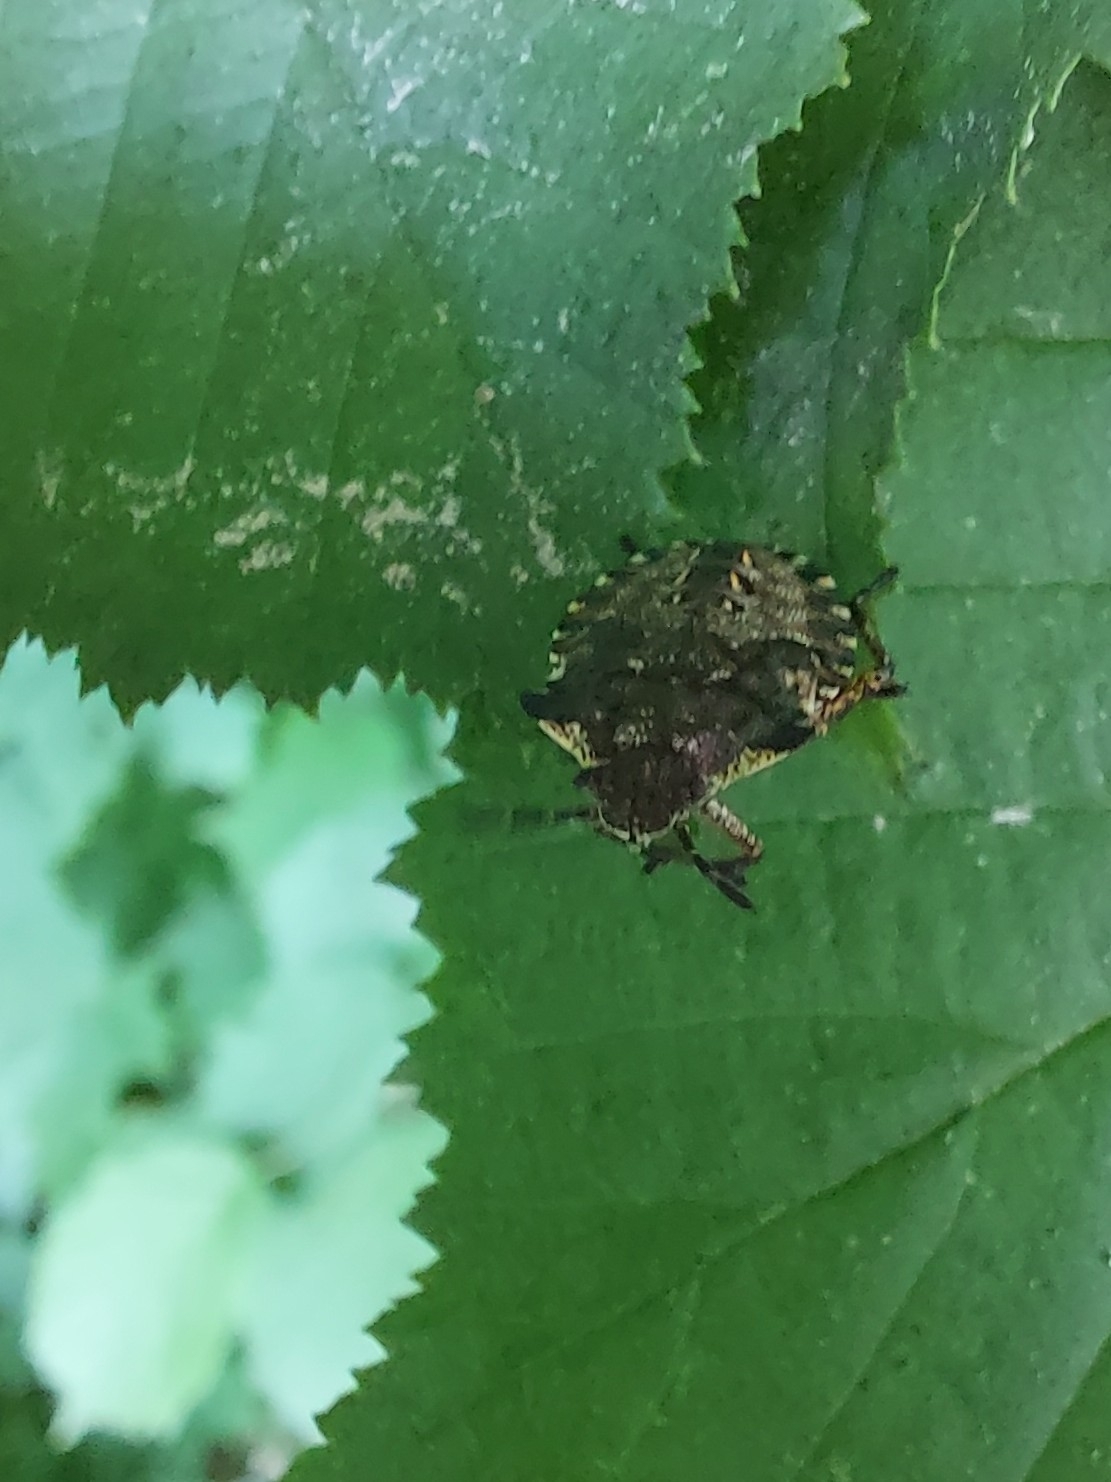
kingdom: Animalia
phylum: Arthropoda
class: Insecta
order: Hemiptera
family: Pentatomidae
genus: Pentatoma
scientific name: Pentatoma rufipes
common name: Forest bug
